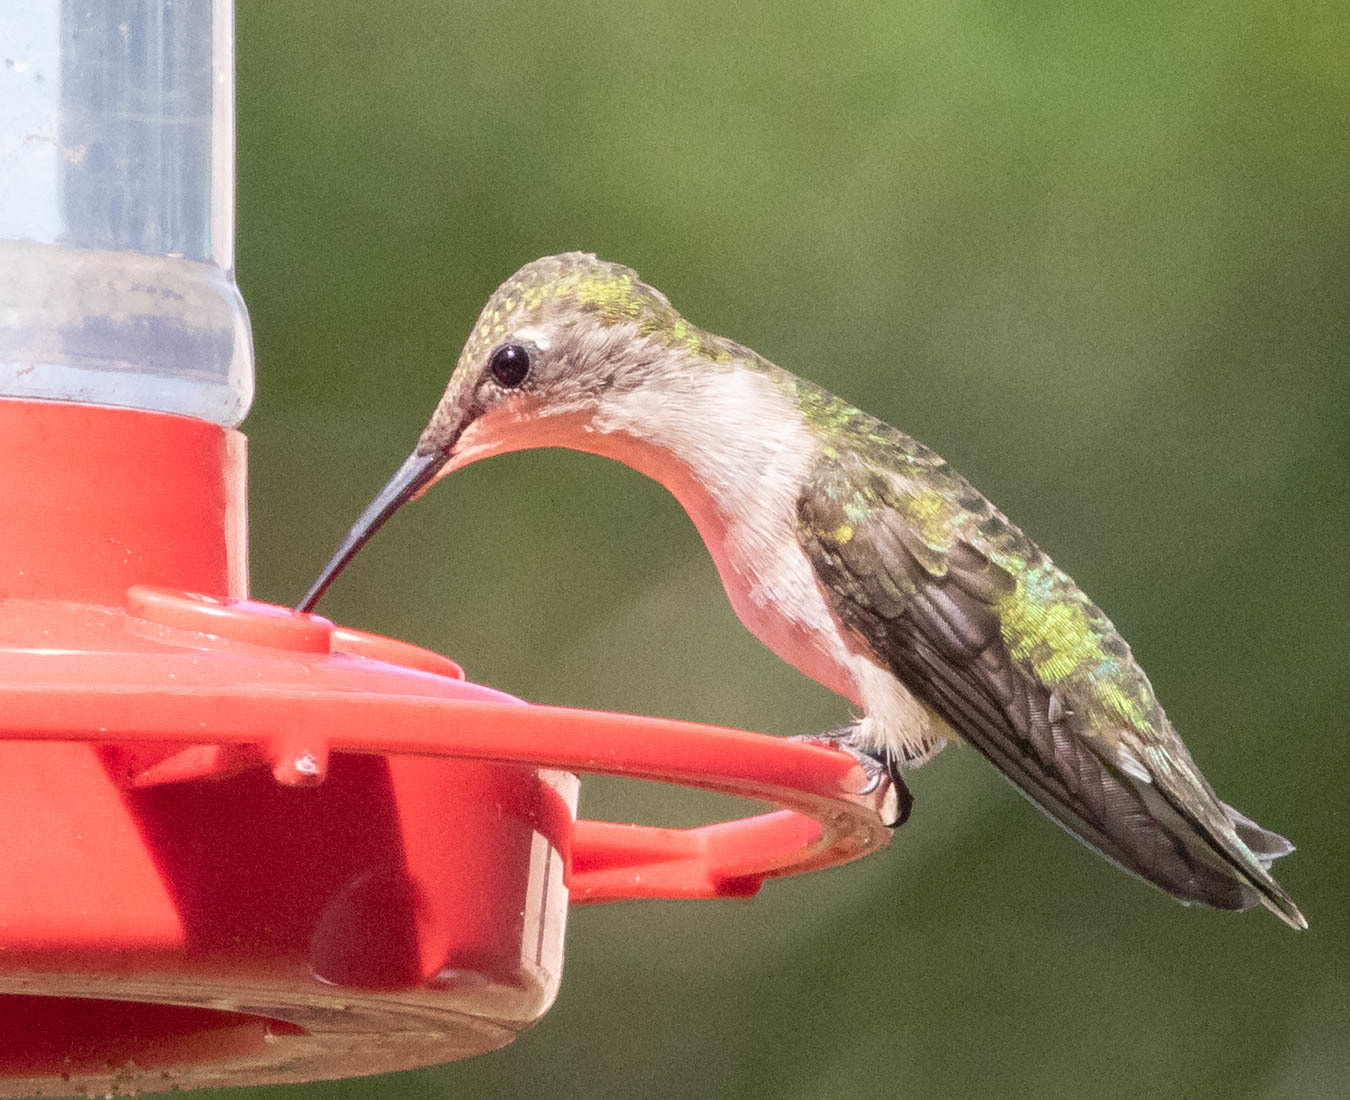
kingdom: Animalia
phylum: Chordata
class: Aves
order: Apodiformes
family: Trochilidae
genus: Archilochus
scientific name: Archilochus colubris
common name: Ruby-throated hummingbird
